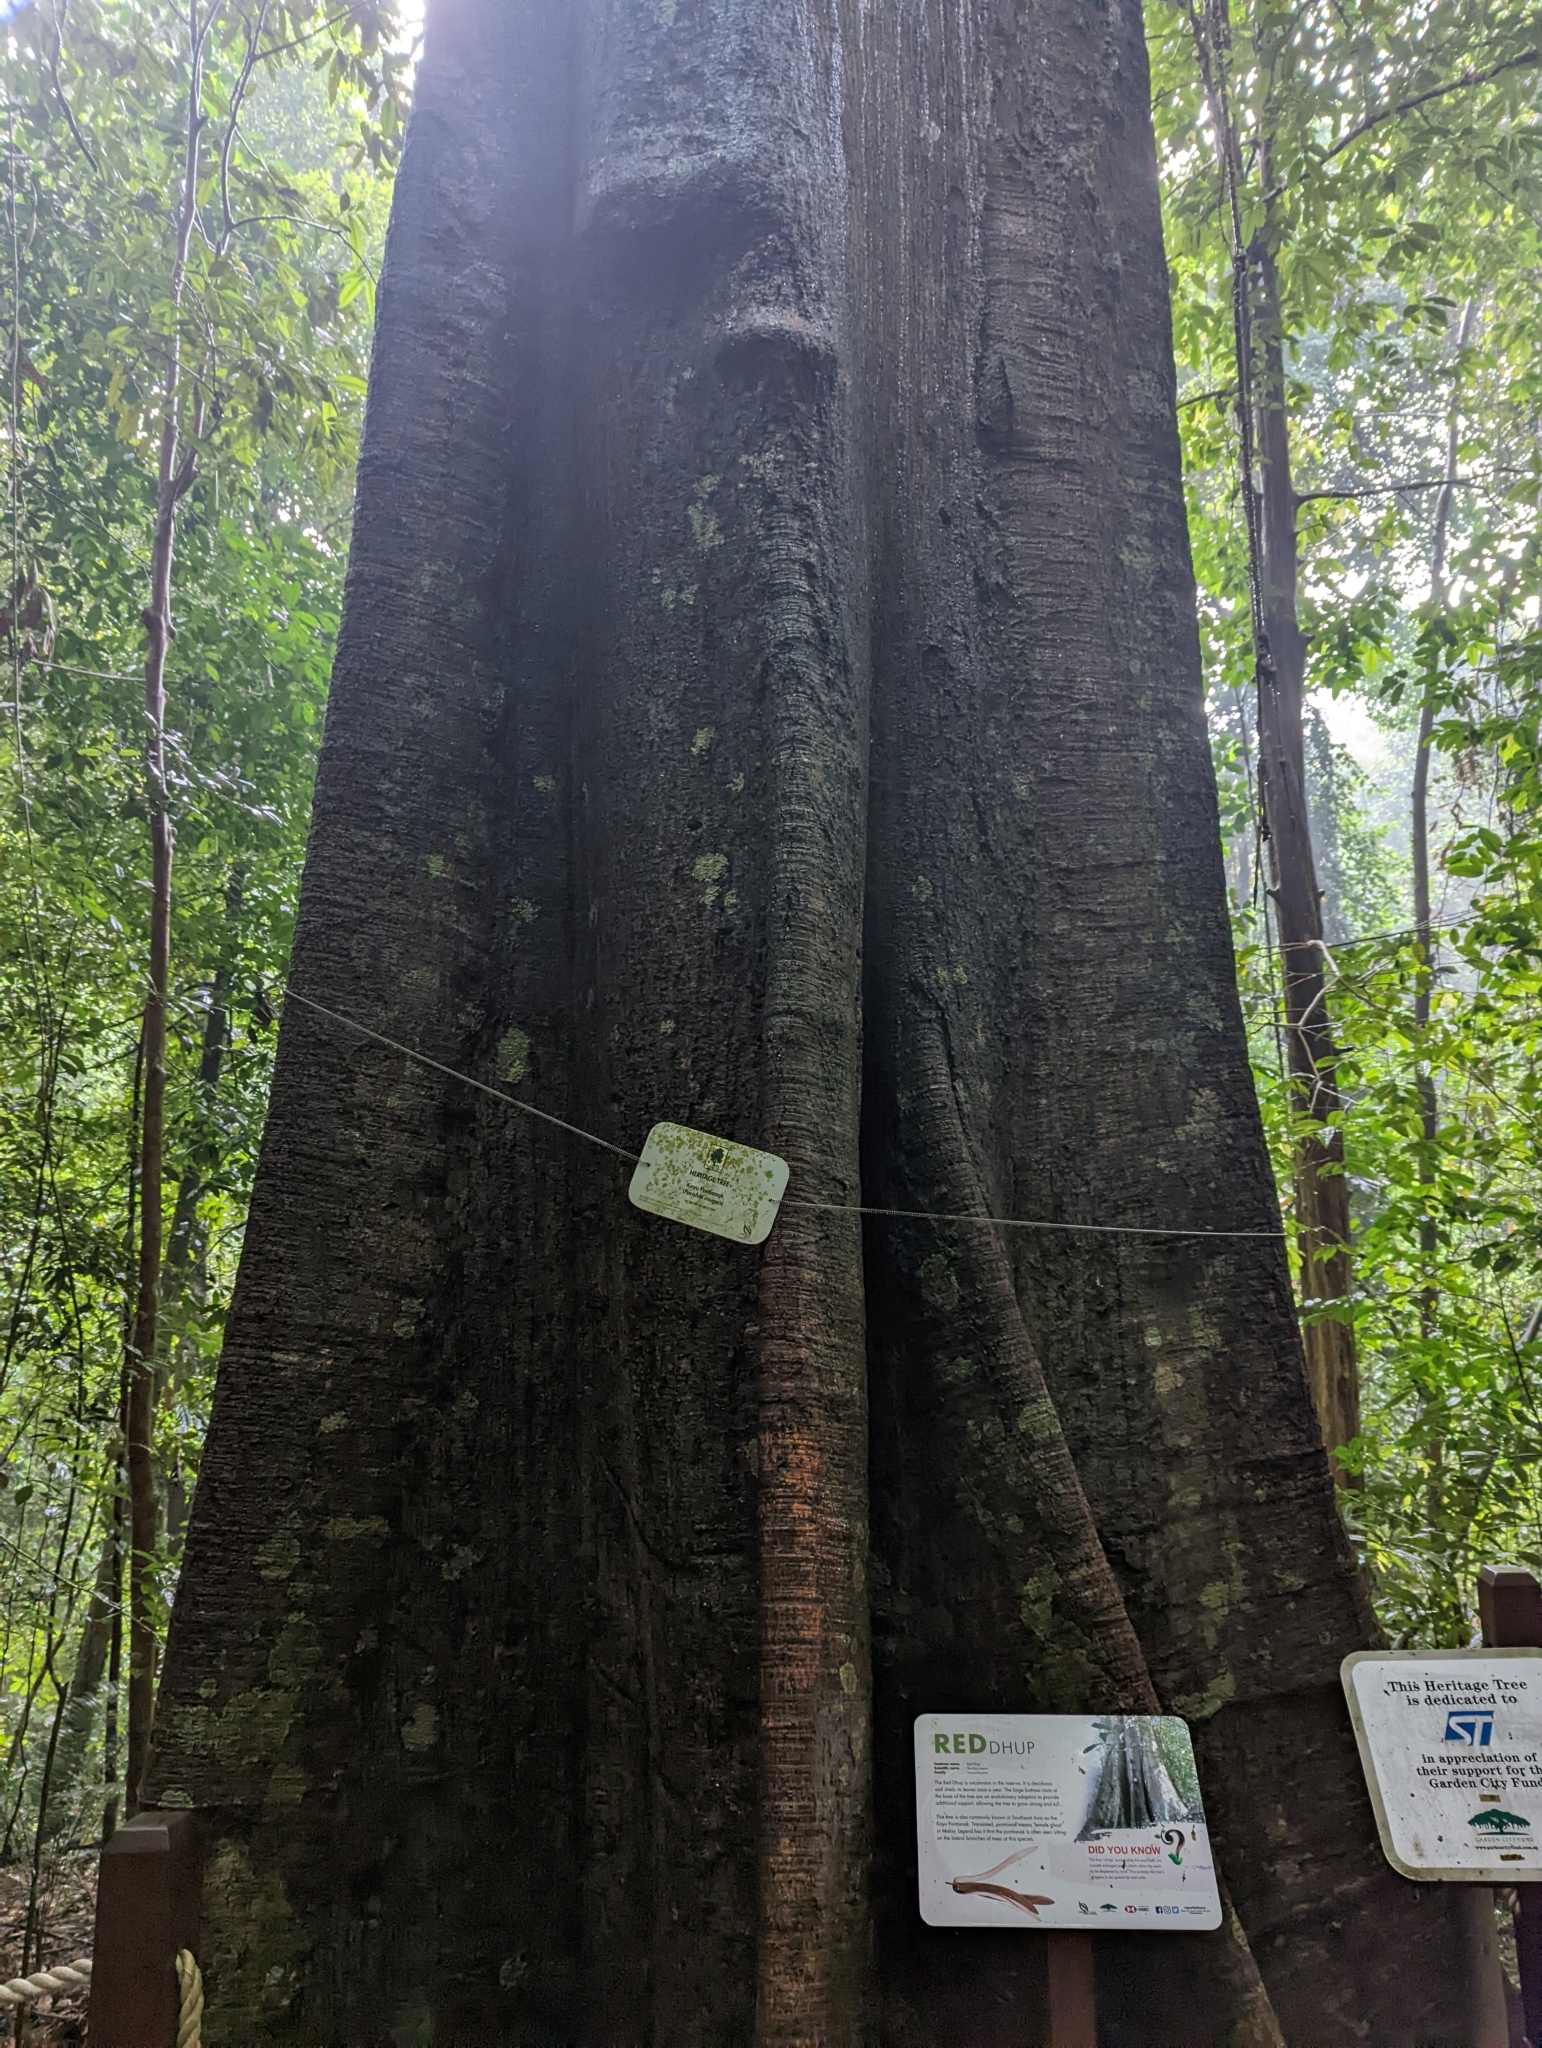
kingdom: Plantae
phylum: Tracheophyta
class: Magnoliopsida
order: Sapindales
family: Anacardiaceae
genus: Parishia
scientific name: Parishia insignis
